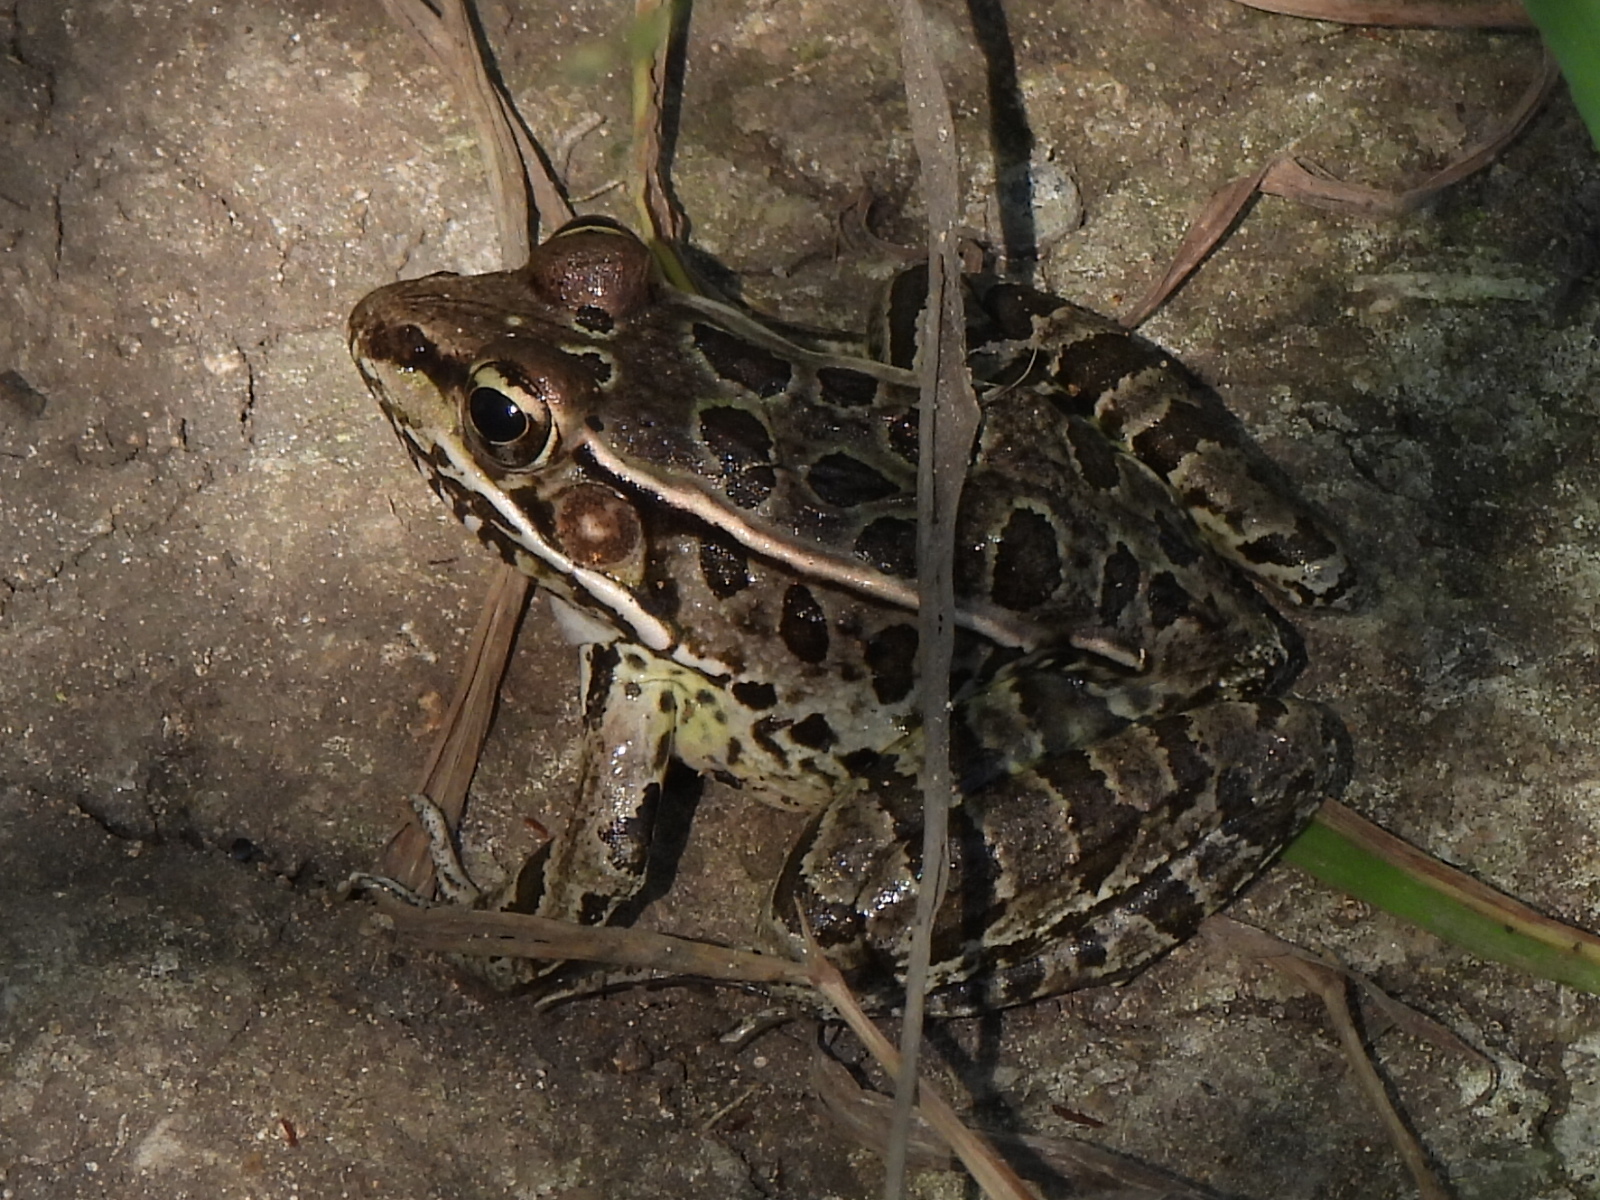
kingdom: Animalia
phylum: Chordata
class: Amphibia
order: Anura
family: Ranidae
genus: Lithobates
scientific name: Lithobates berlandieri
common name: Rio grande leopard frog
